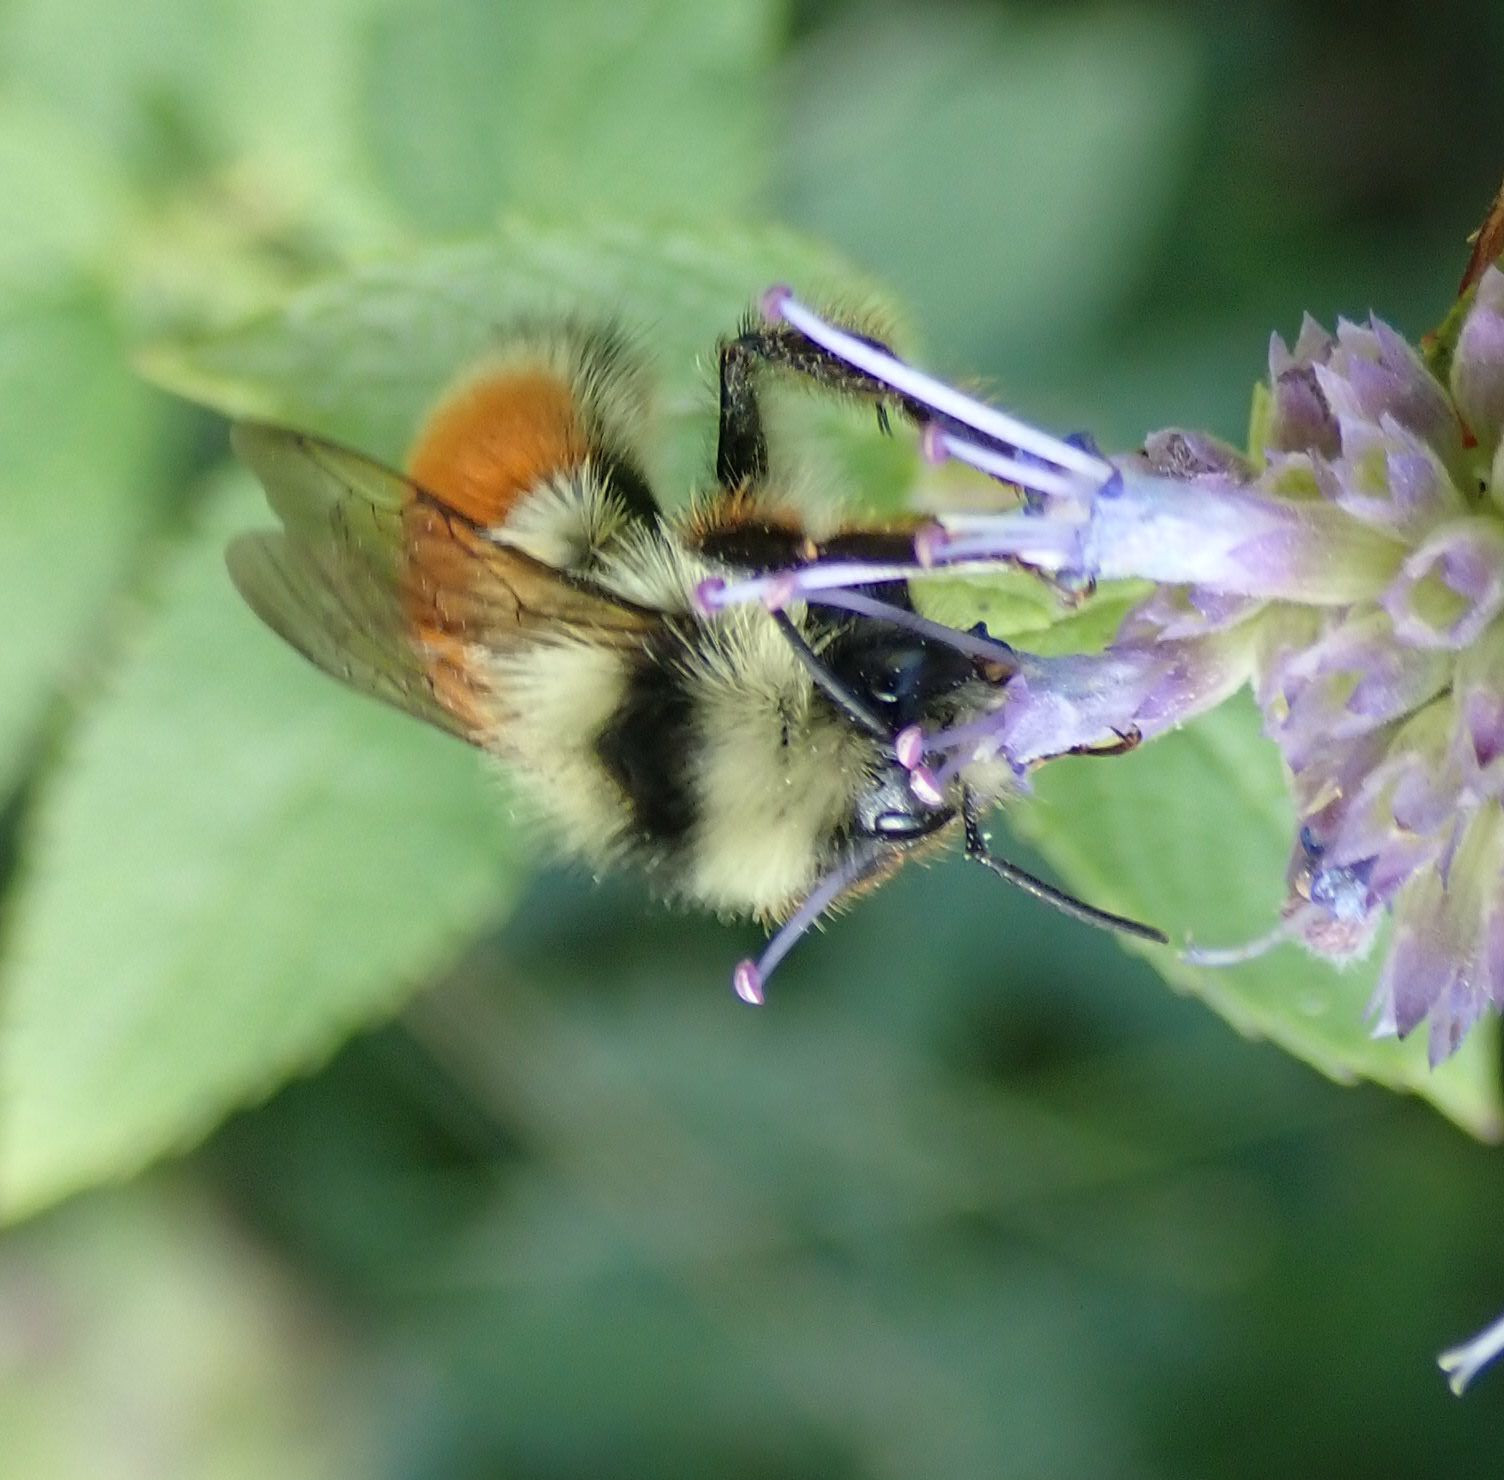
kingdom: Animalia
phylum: Arthropoda
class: Insecta
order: Hymenoptera
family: Apidae
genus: Pyrobombus
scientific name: Pyrobombus
